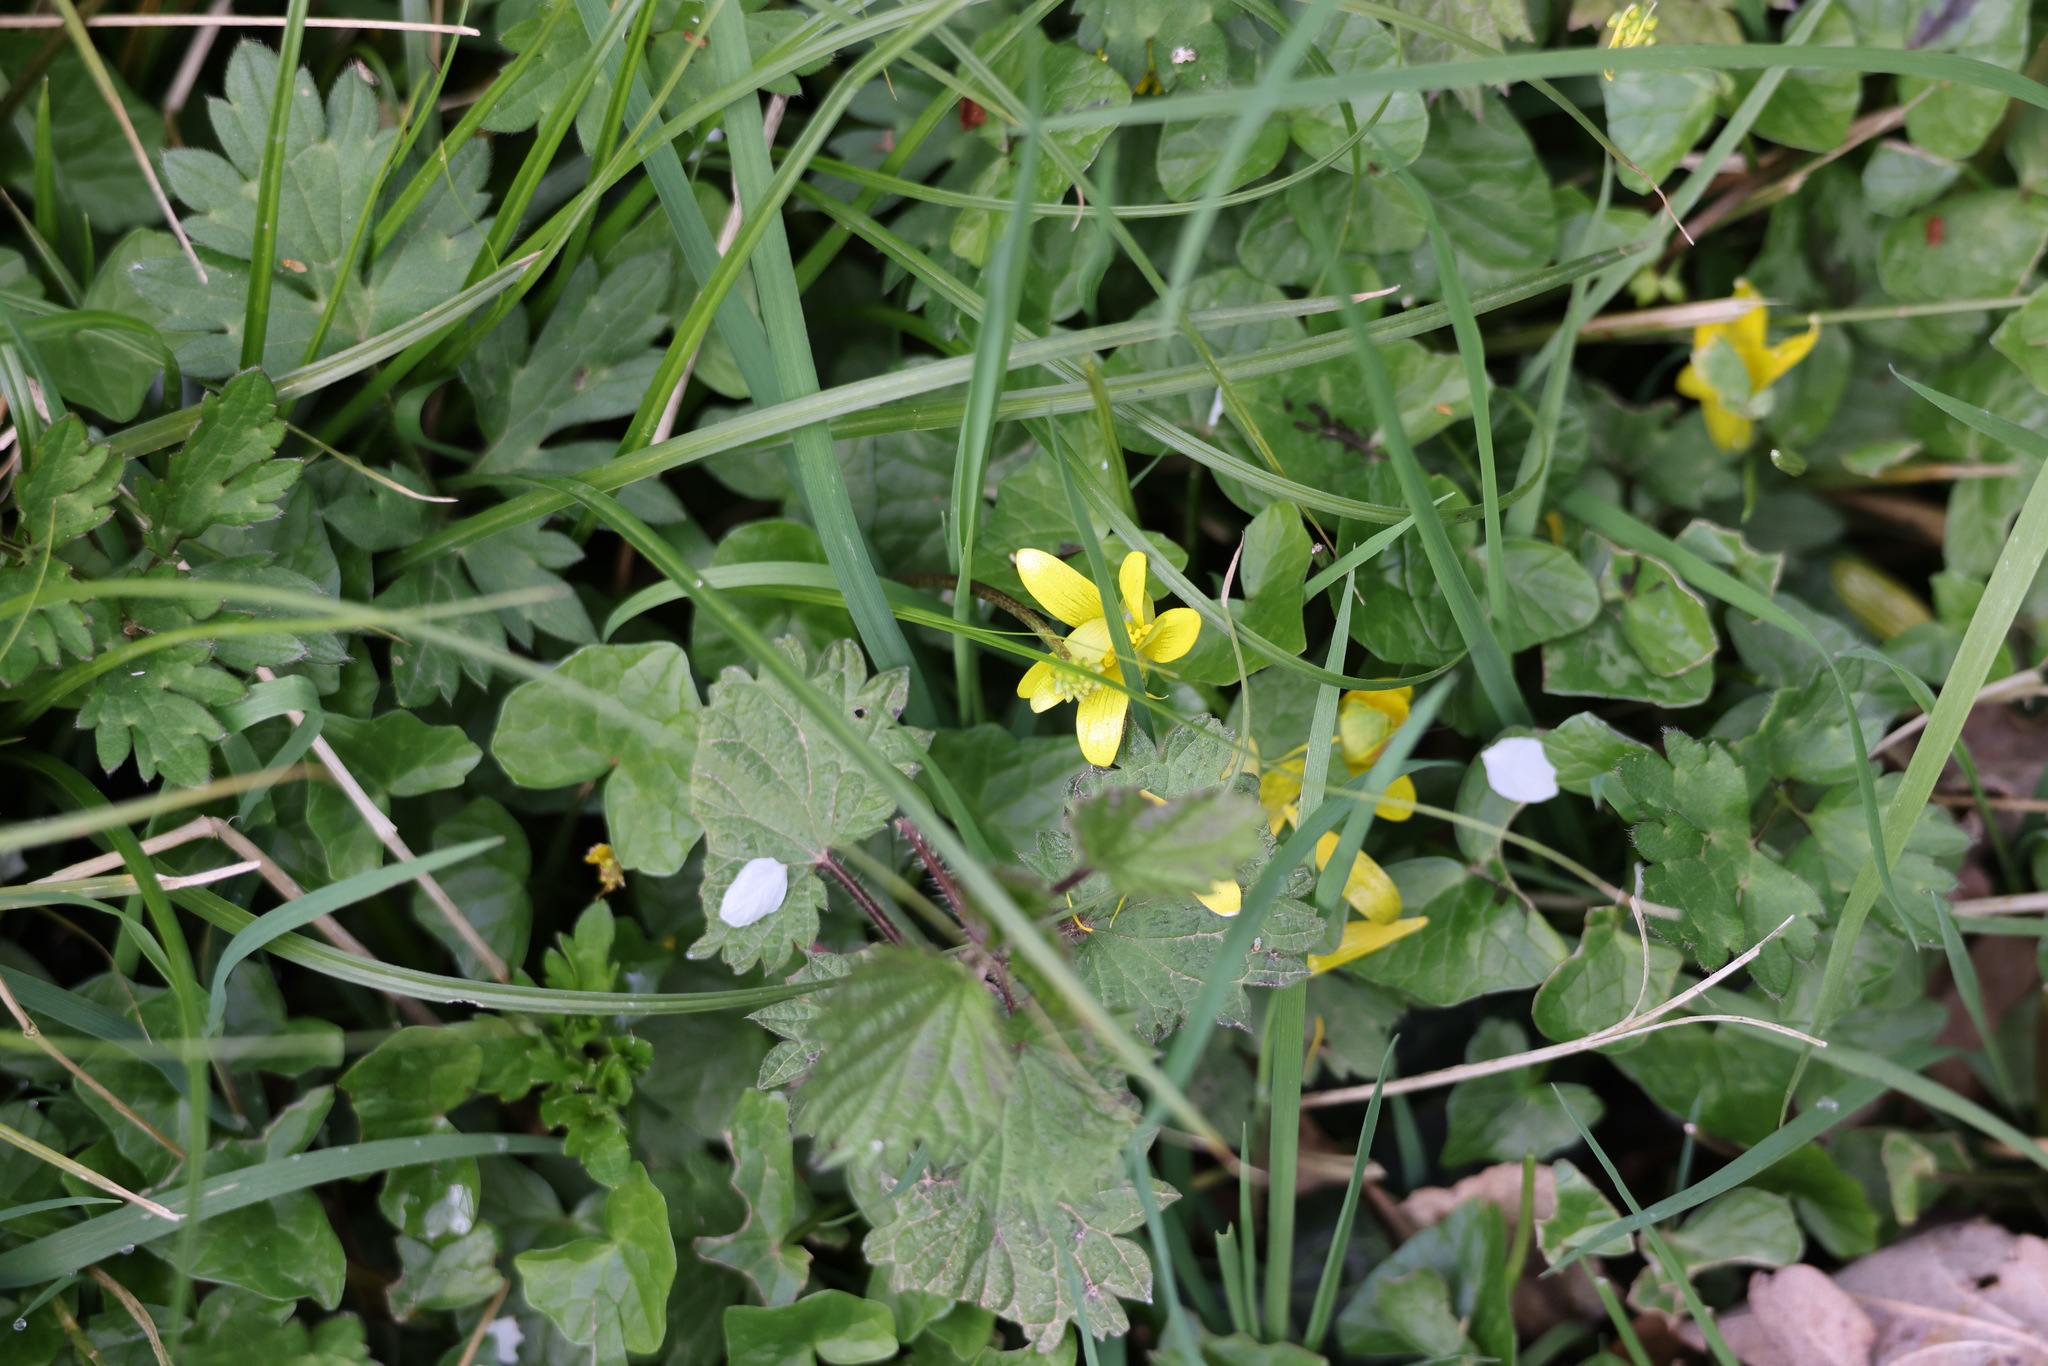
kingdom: Plantae
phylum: Tracheophyta
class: Magnoliopsida
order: Ranunculales
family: Ranunculaceae
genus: Ficaria
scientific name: Ficaria verna
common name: Lesser celandine
